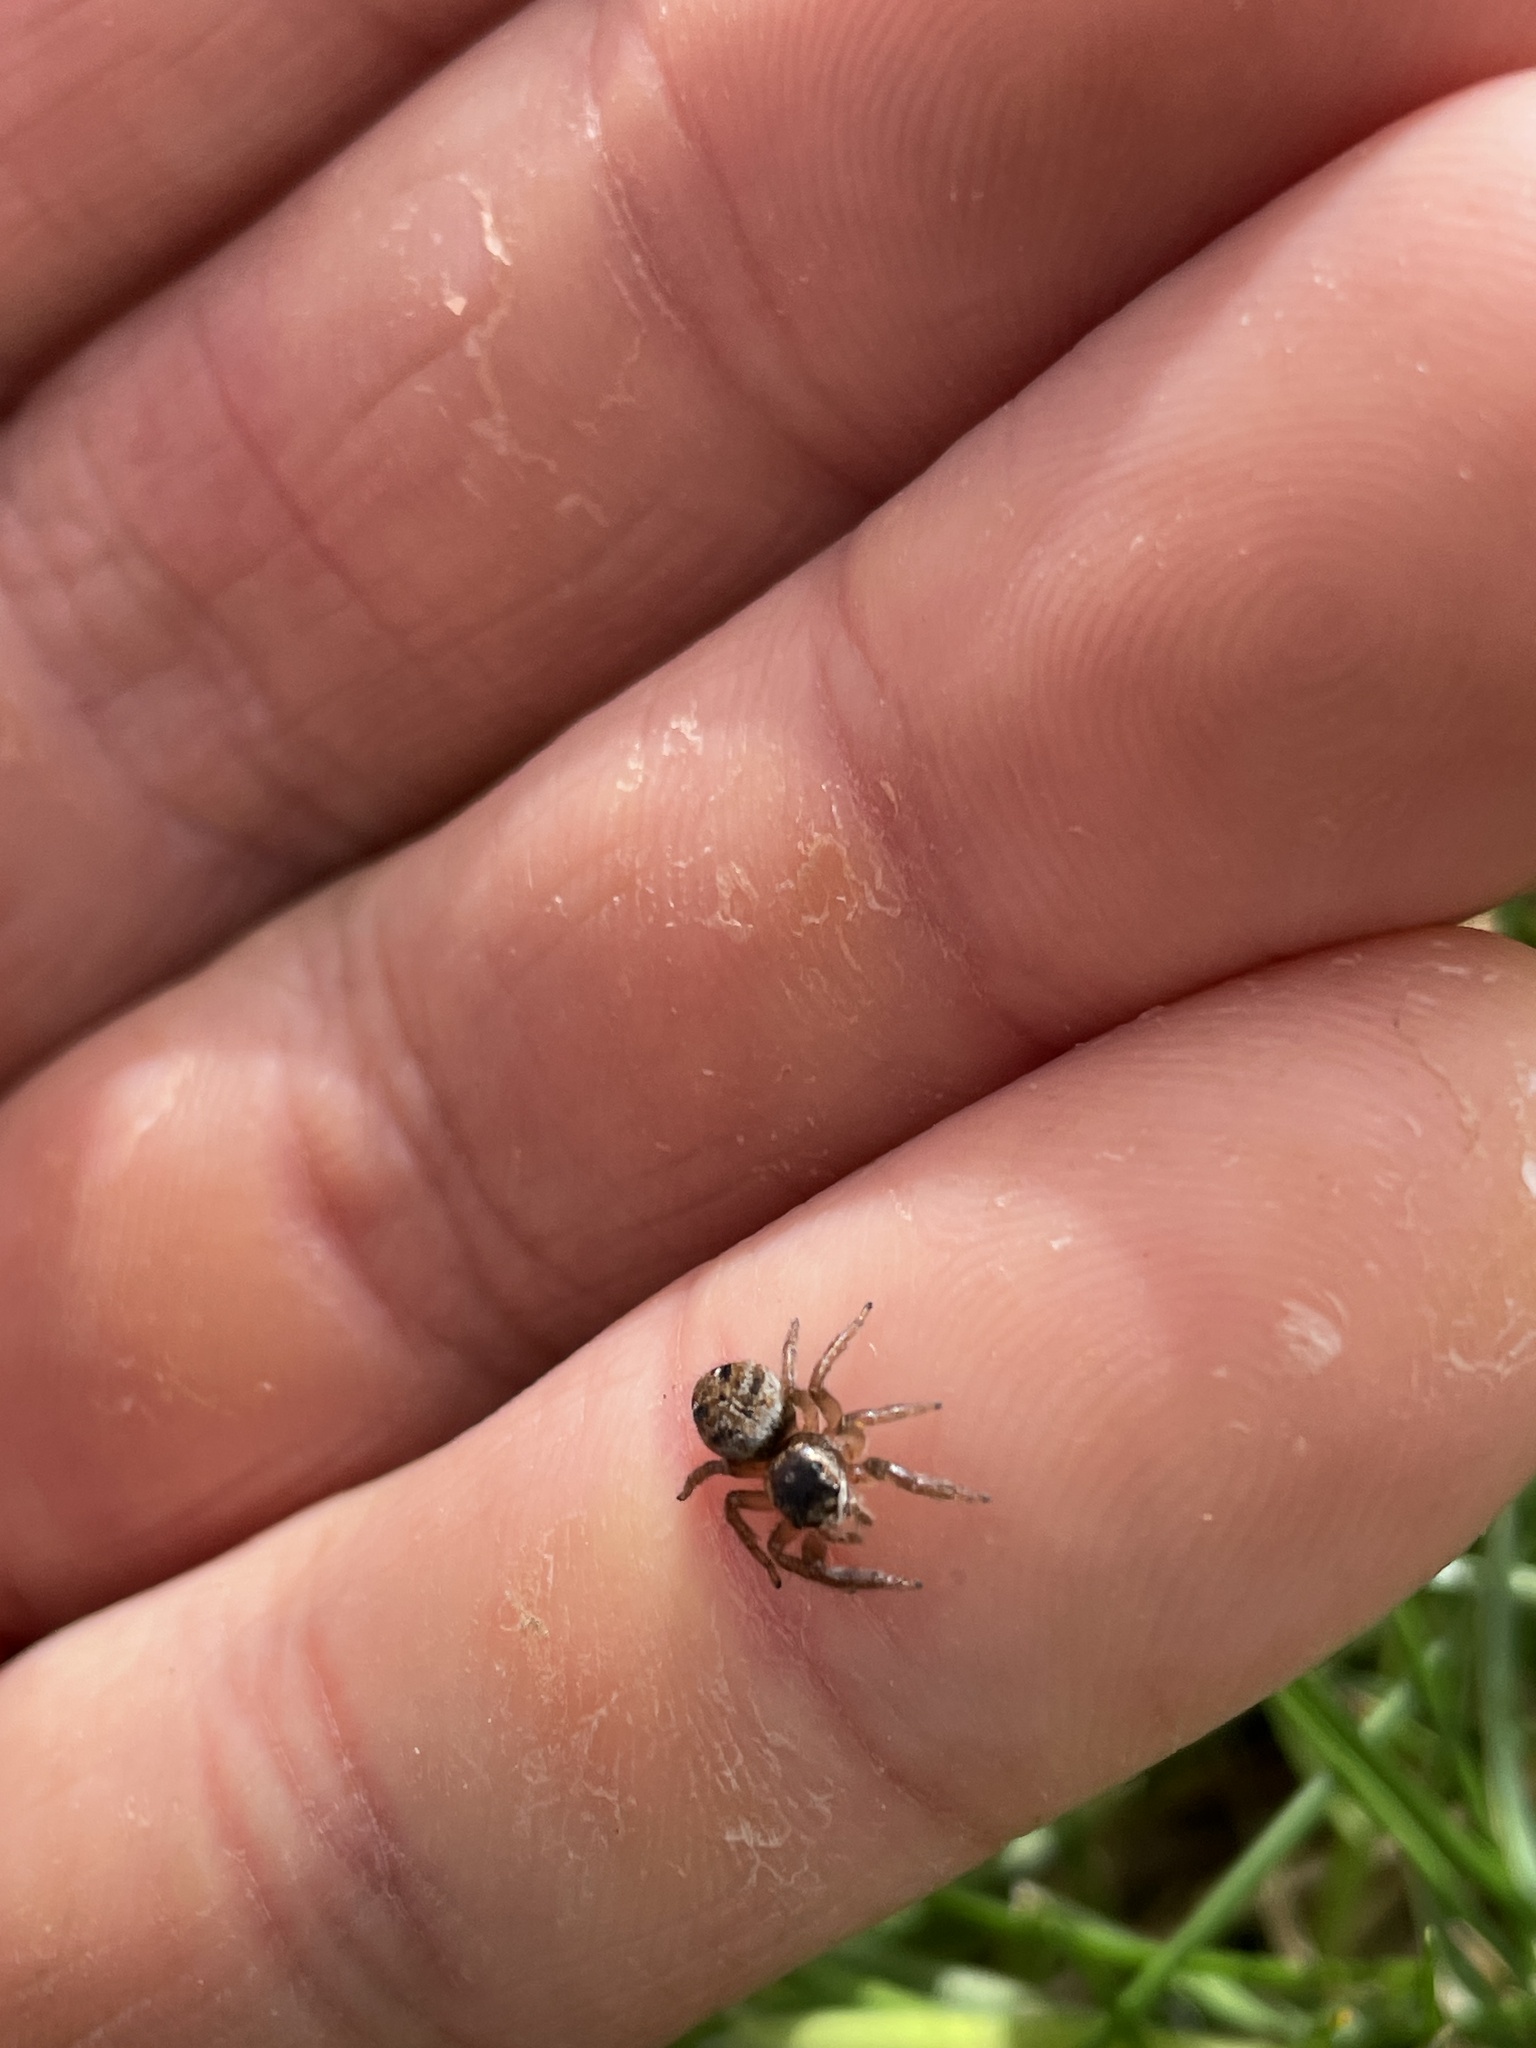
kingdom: Animalia
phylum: Arthropoda
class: Arachnida
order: Araneae
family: Salticidae
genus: Evarcha
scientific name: Evarcha arcuata
